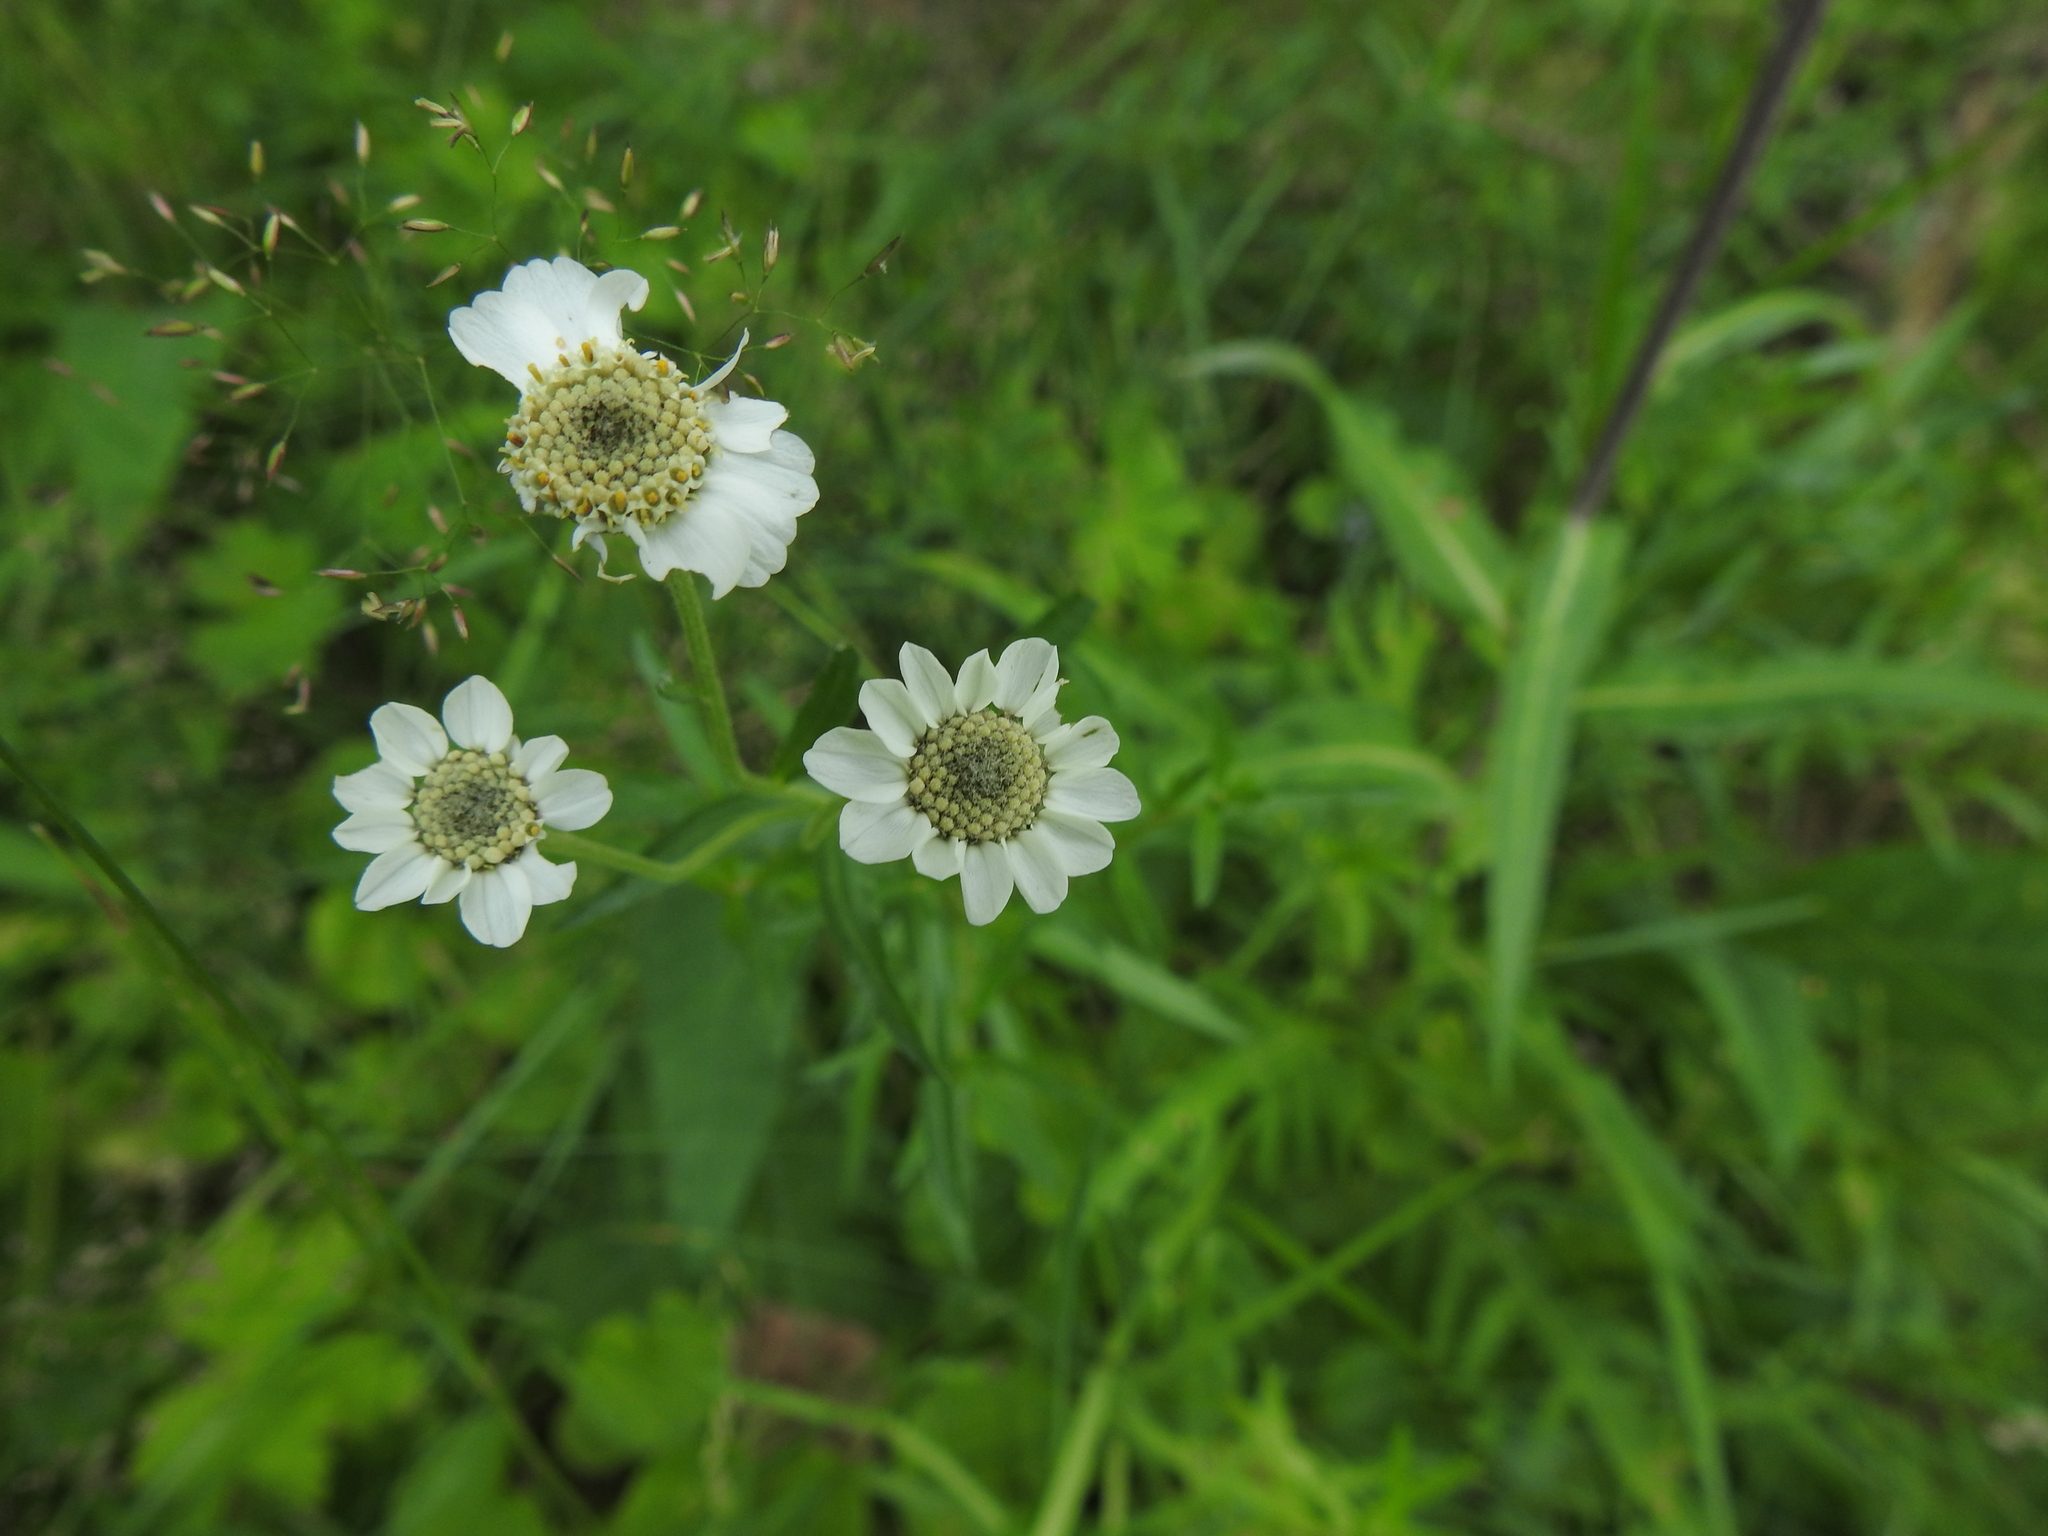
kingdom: Plantae
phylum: Tracheophyta
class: Magnoliopsida
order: Asterales
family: Asteraceae
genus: Achillea
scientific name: Achillea ptarmica
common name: Sneezeweed
